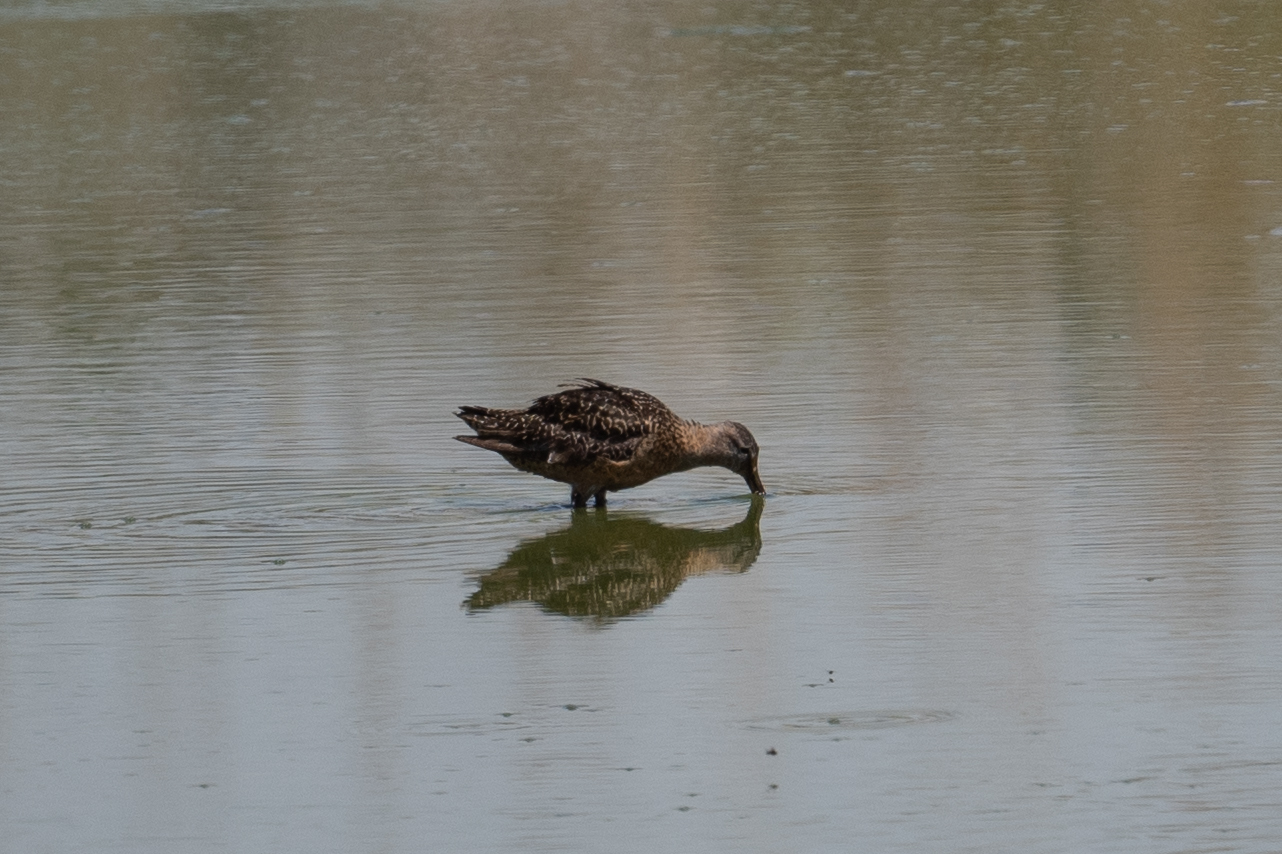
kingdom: Animalia
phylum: Chordata
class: Aves
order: Charadriiformes
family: Scolopacidae
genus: Limnodromus
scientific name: Limnodromus scolopaceus
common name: Long-billed dowitcher
